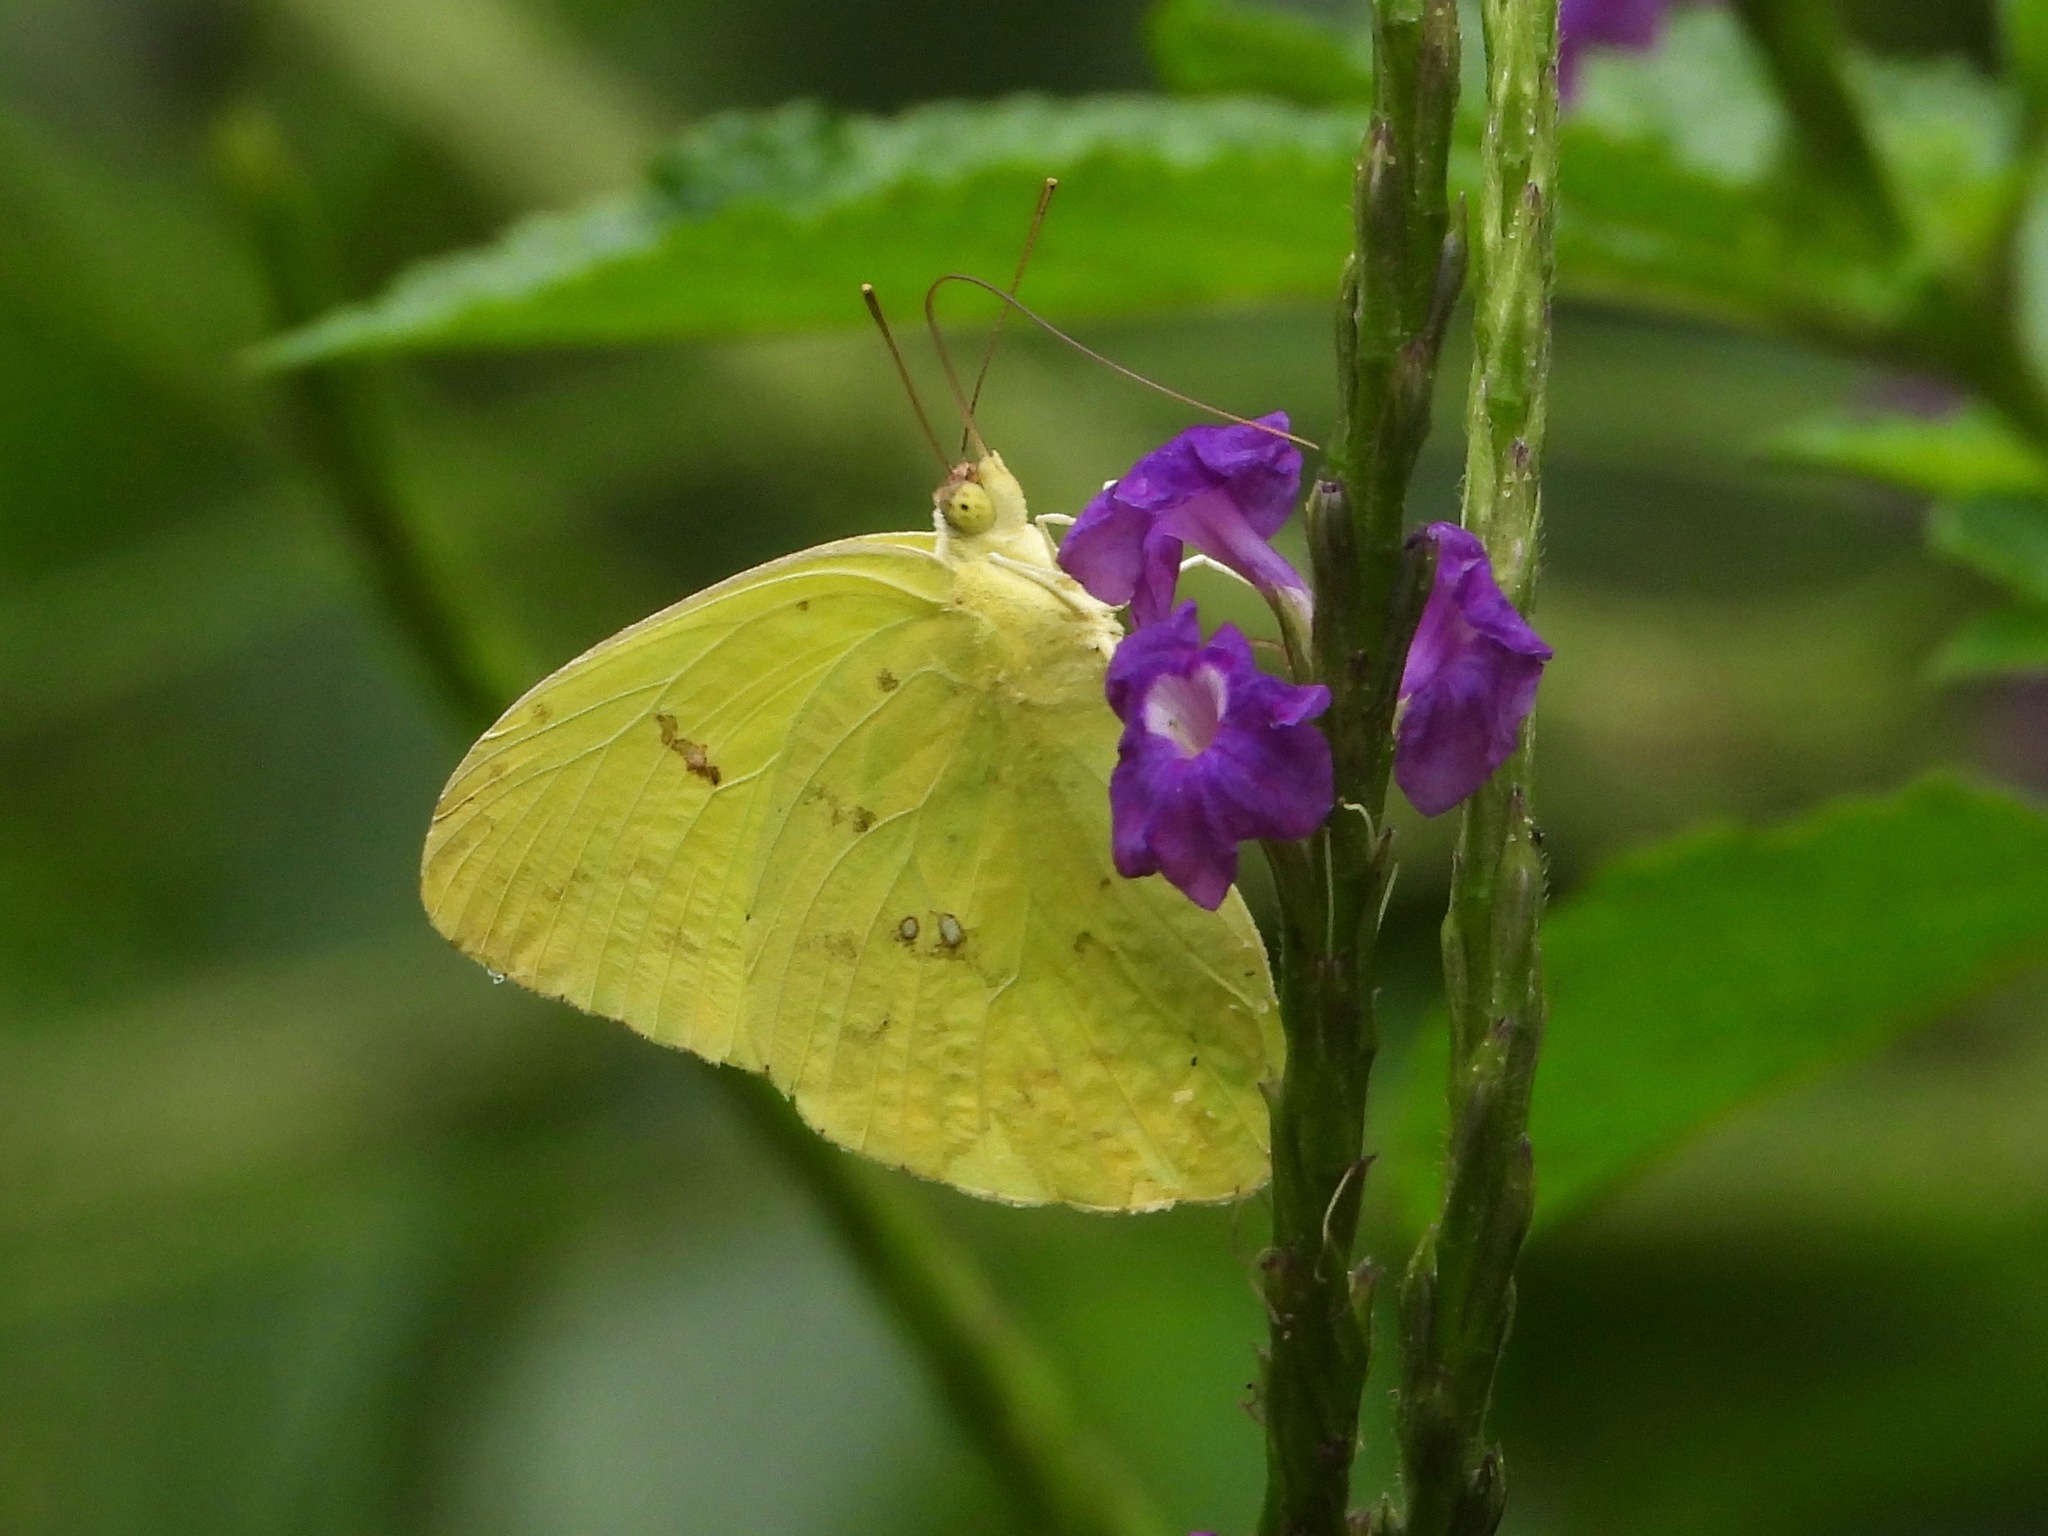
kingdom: Animalia
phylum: Arthropoda
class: Insecta
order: Lepidoptera
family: Pieridae
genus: Phoebis
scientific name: Phoebis sennae
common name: Cloudless sulphur
